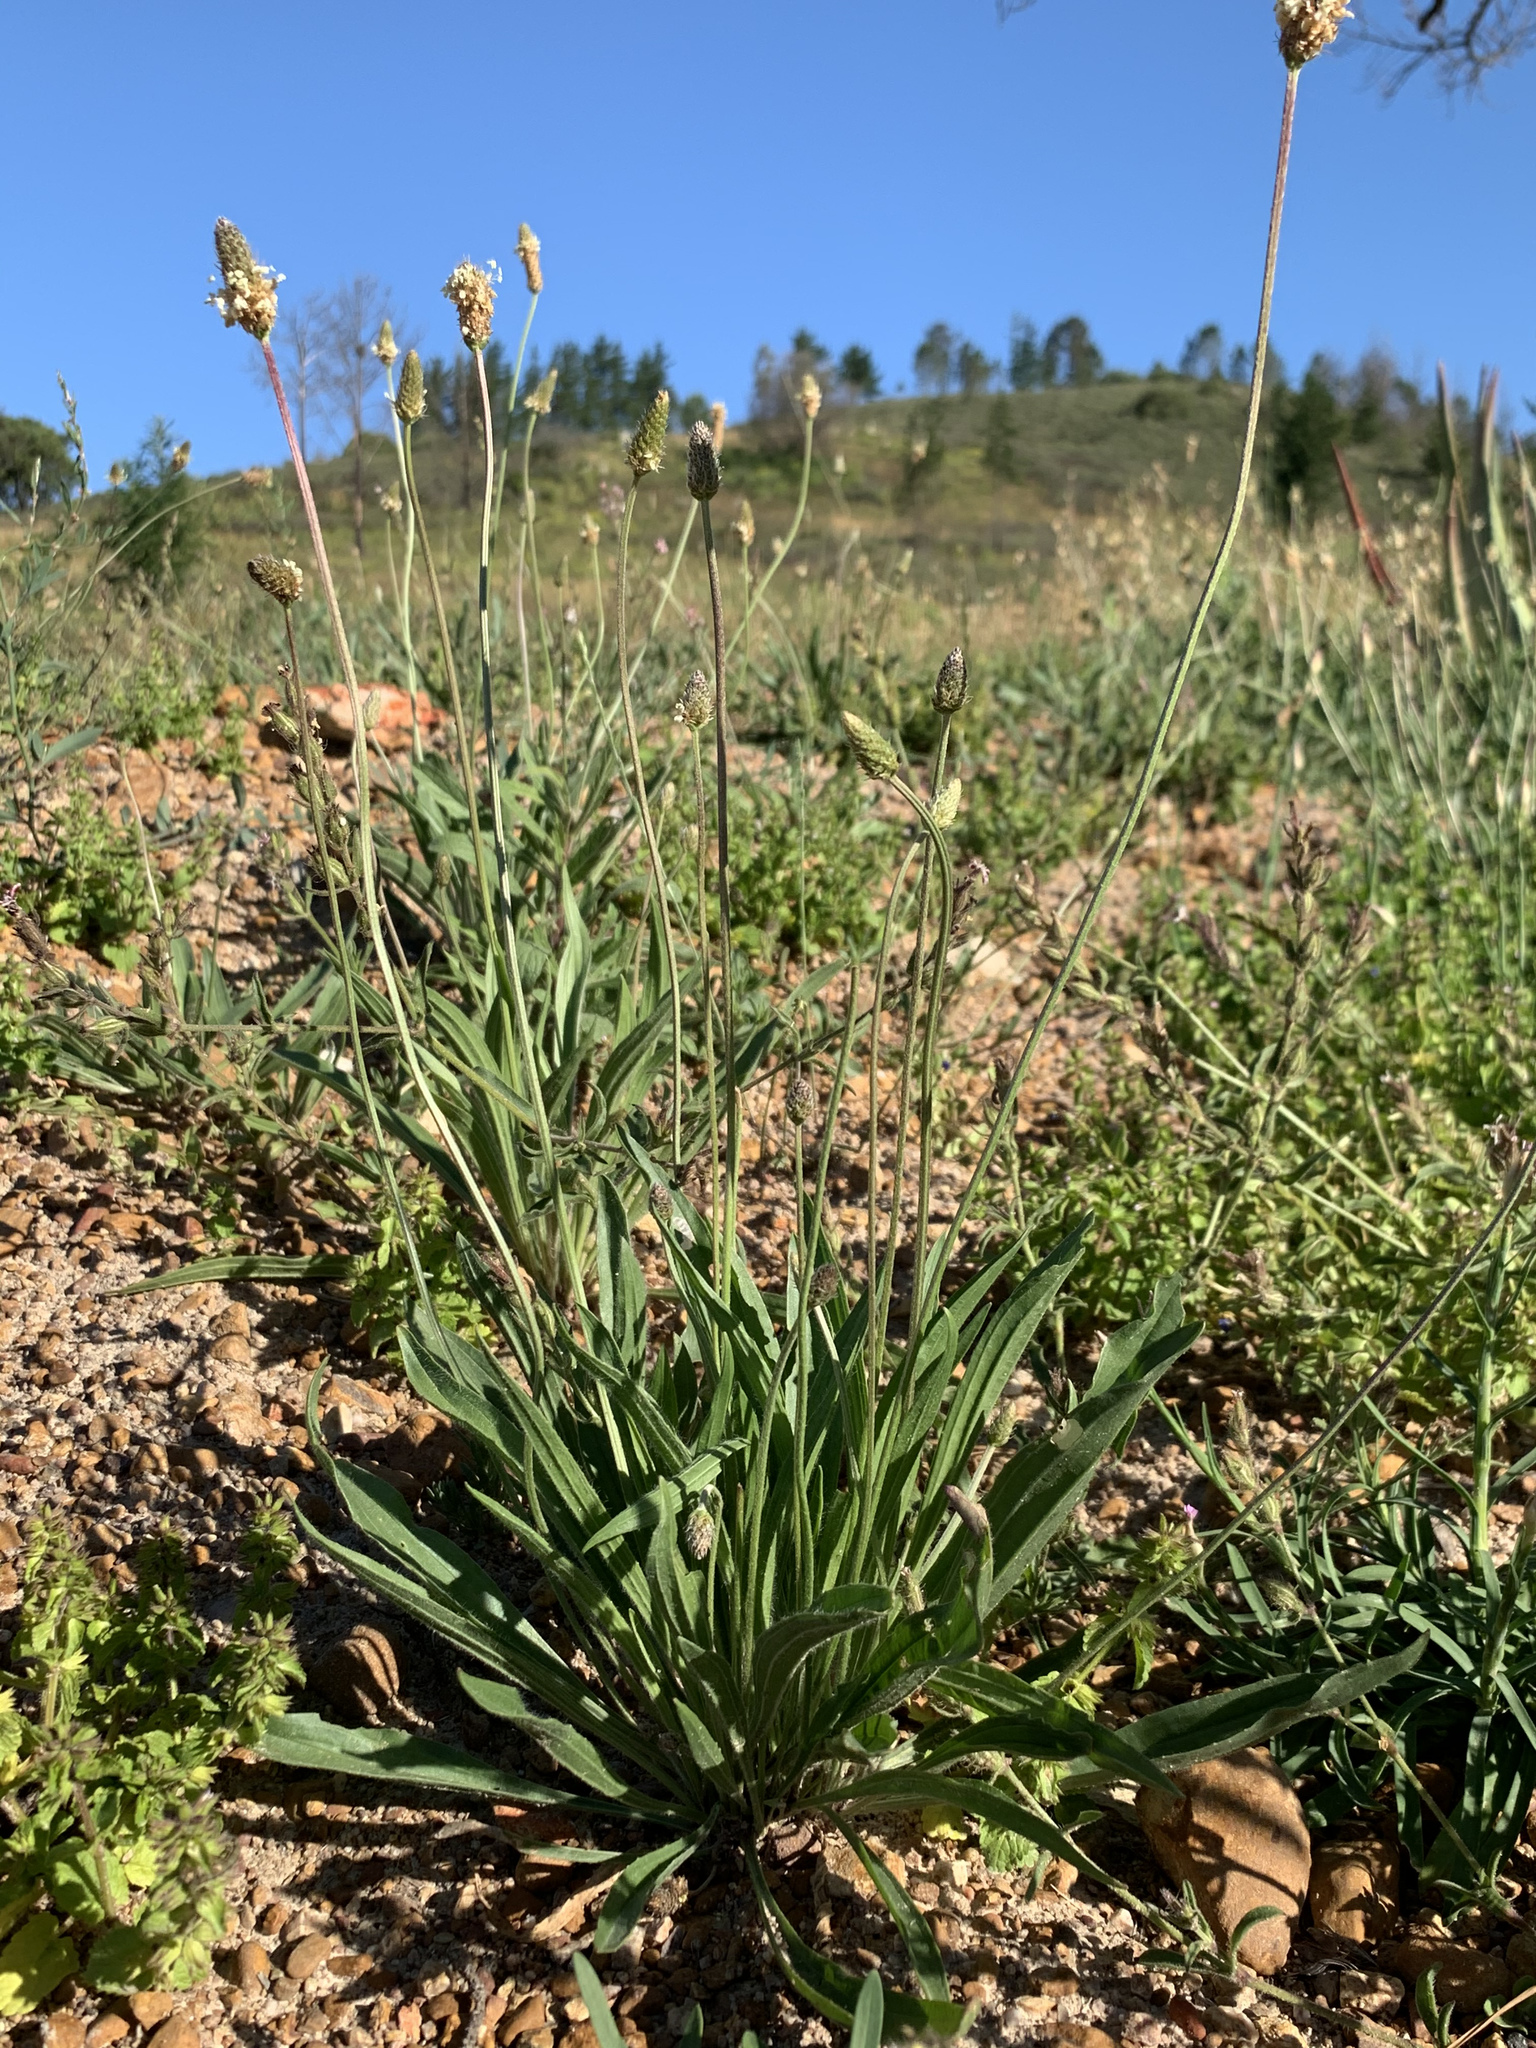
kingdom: Plantae
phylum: Tracheophyta
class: Magnoliopsida
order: Lamiales
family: Plantaginaceae
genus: Plantago
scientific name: Plantago lanceolata
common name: Ribwort plantain
